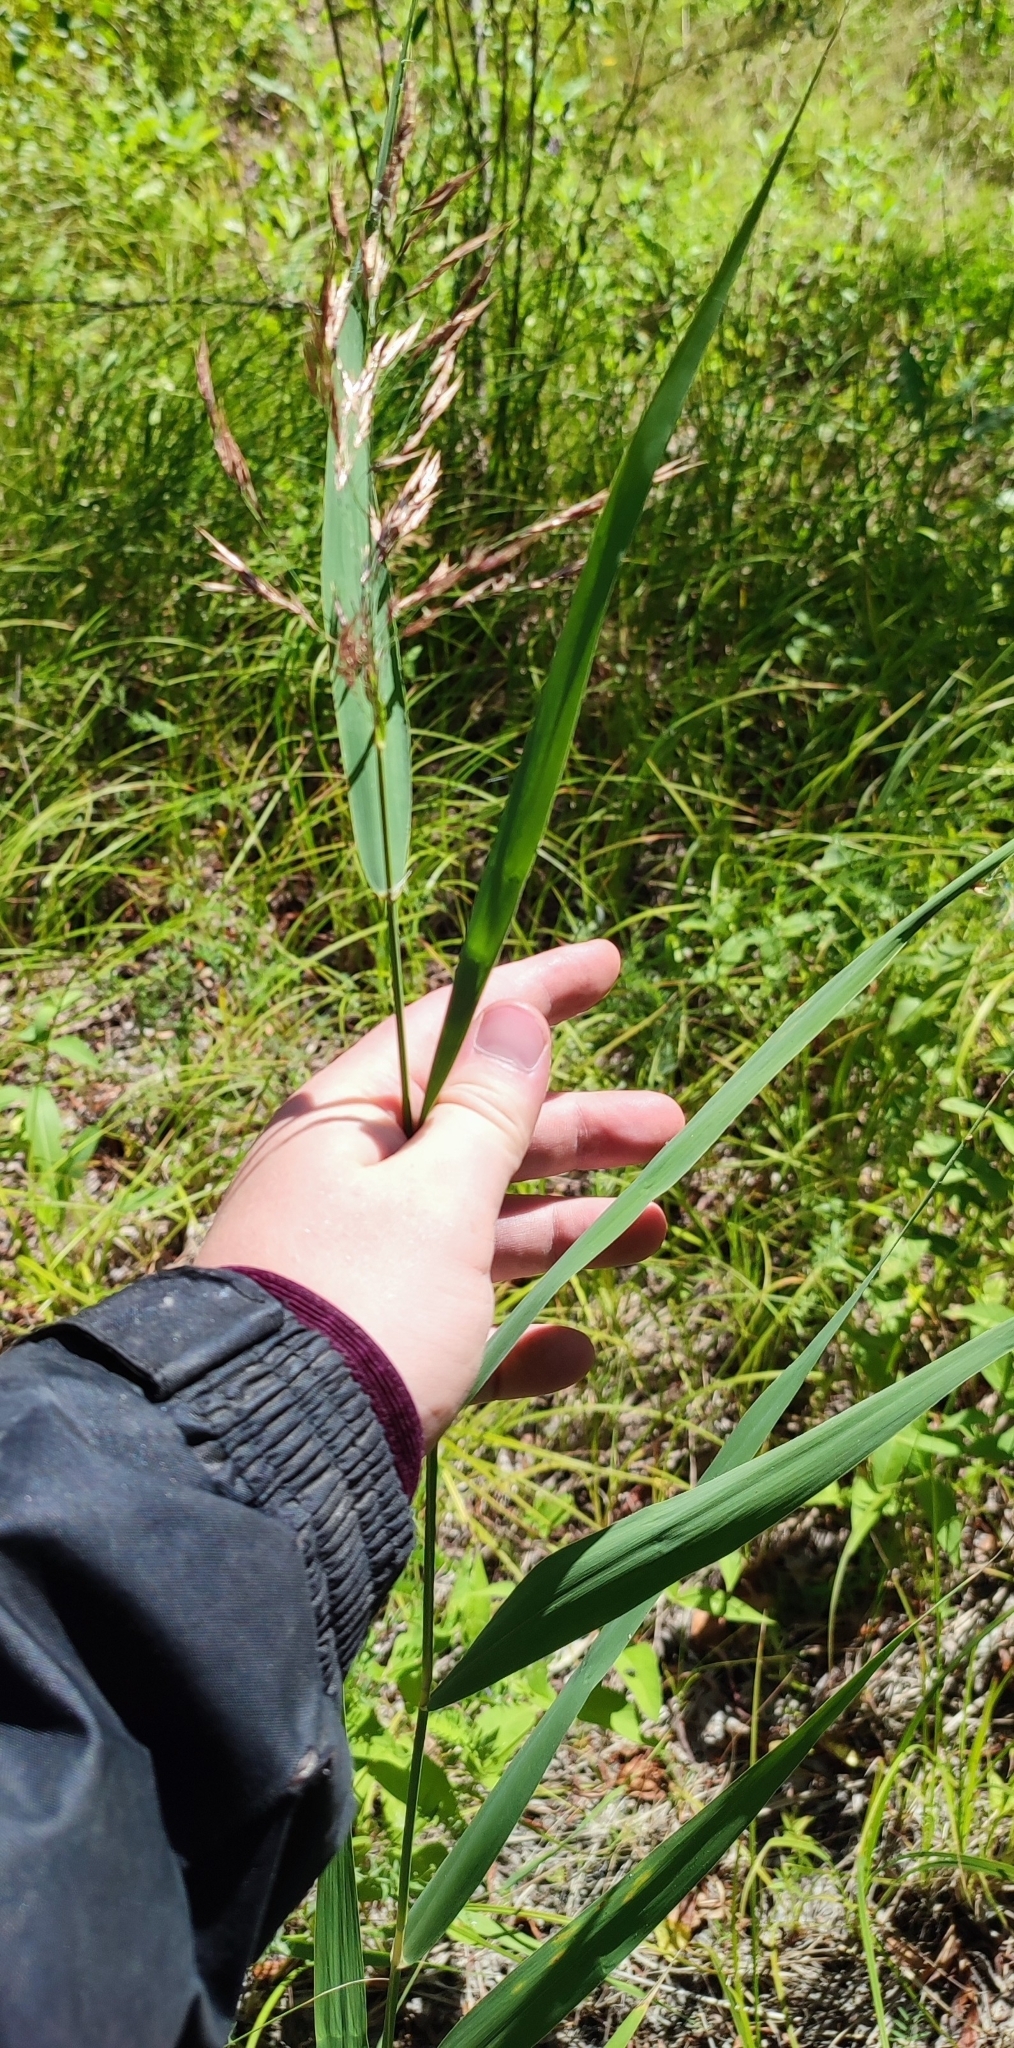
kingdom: Plantae
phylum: Tracheophyta
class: Liliopsida
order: Poales
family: Poaceae
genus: Phragmites
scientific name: Phragmites australis
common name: Common reed
